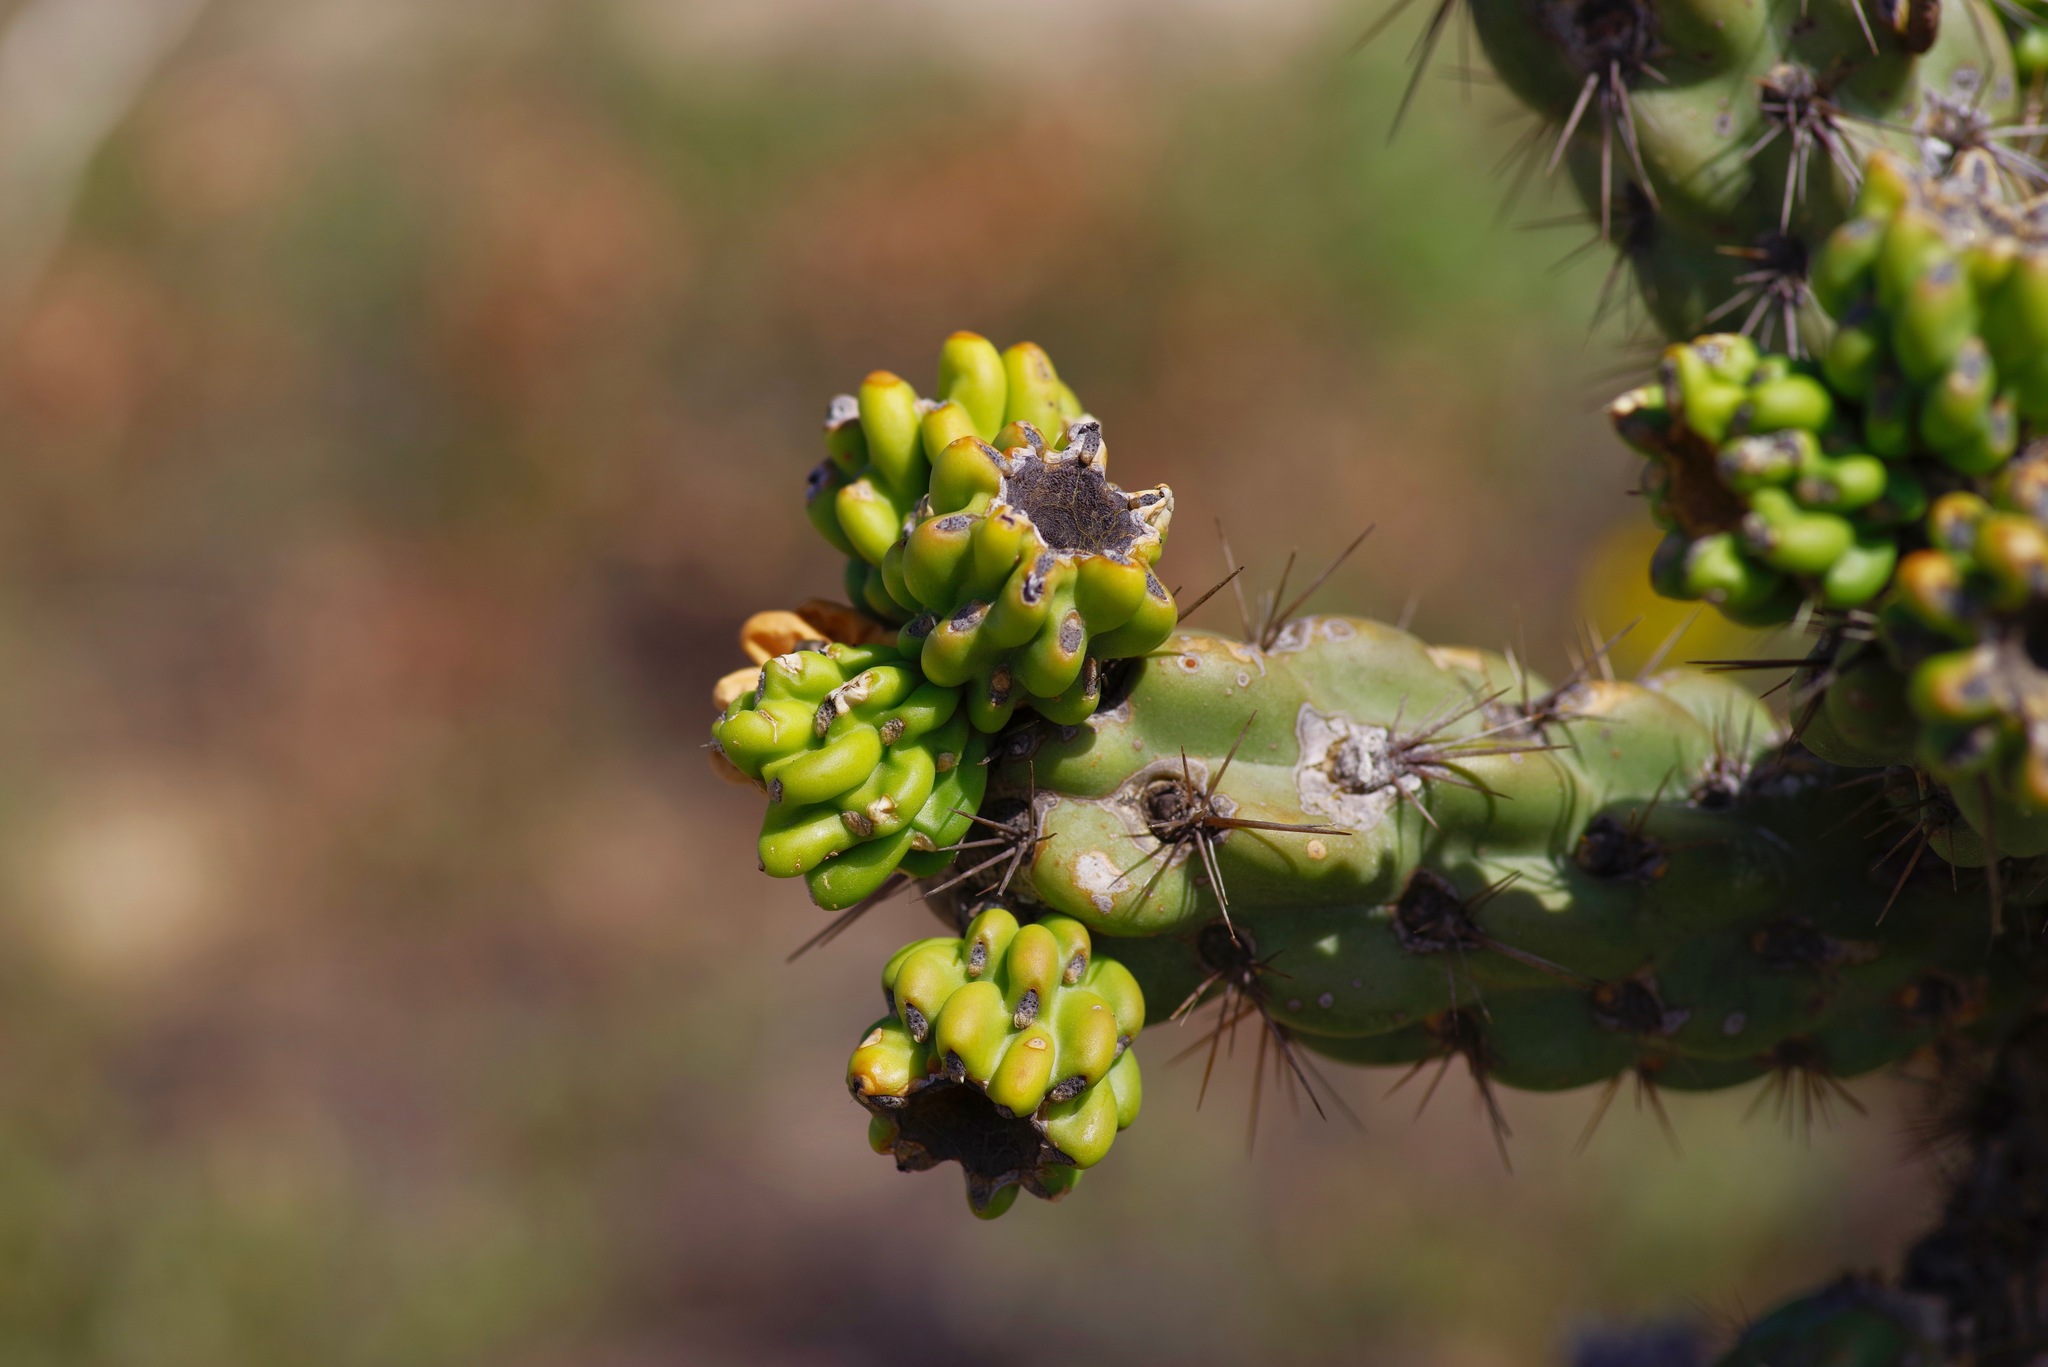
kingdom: Plantae
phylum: Tracheophyta
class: Magnoliopsida
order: Caryophyllales
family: Cactaceae
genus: Cylindropuntia
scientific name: Cylindropuntia imbricata
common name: Candelabrum cactus
